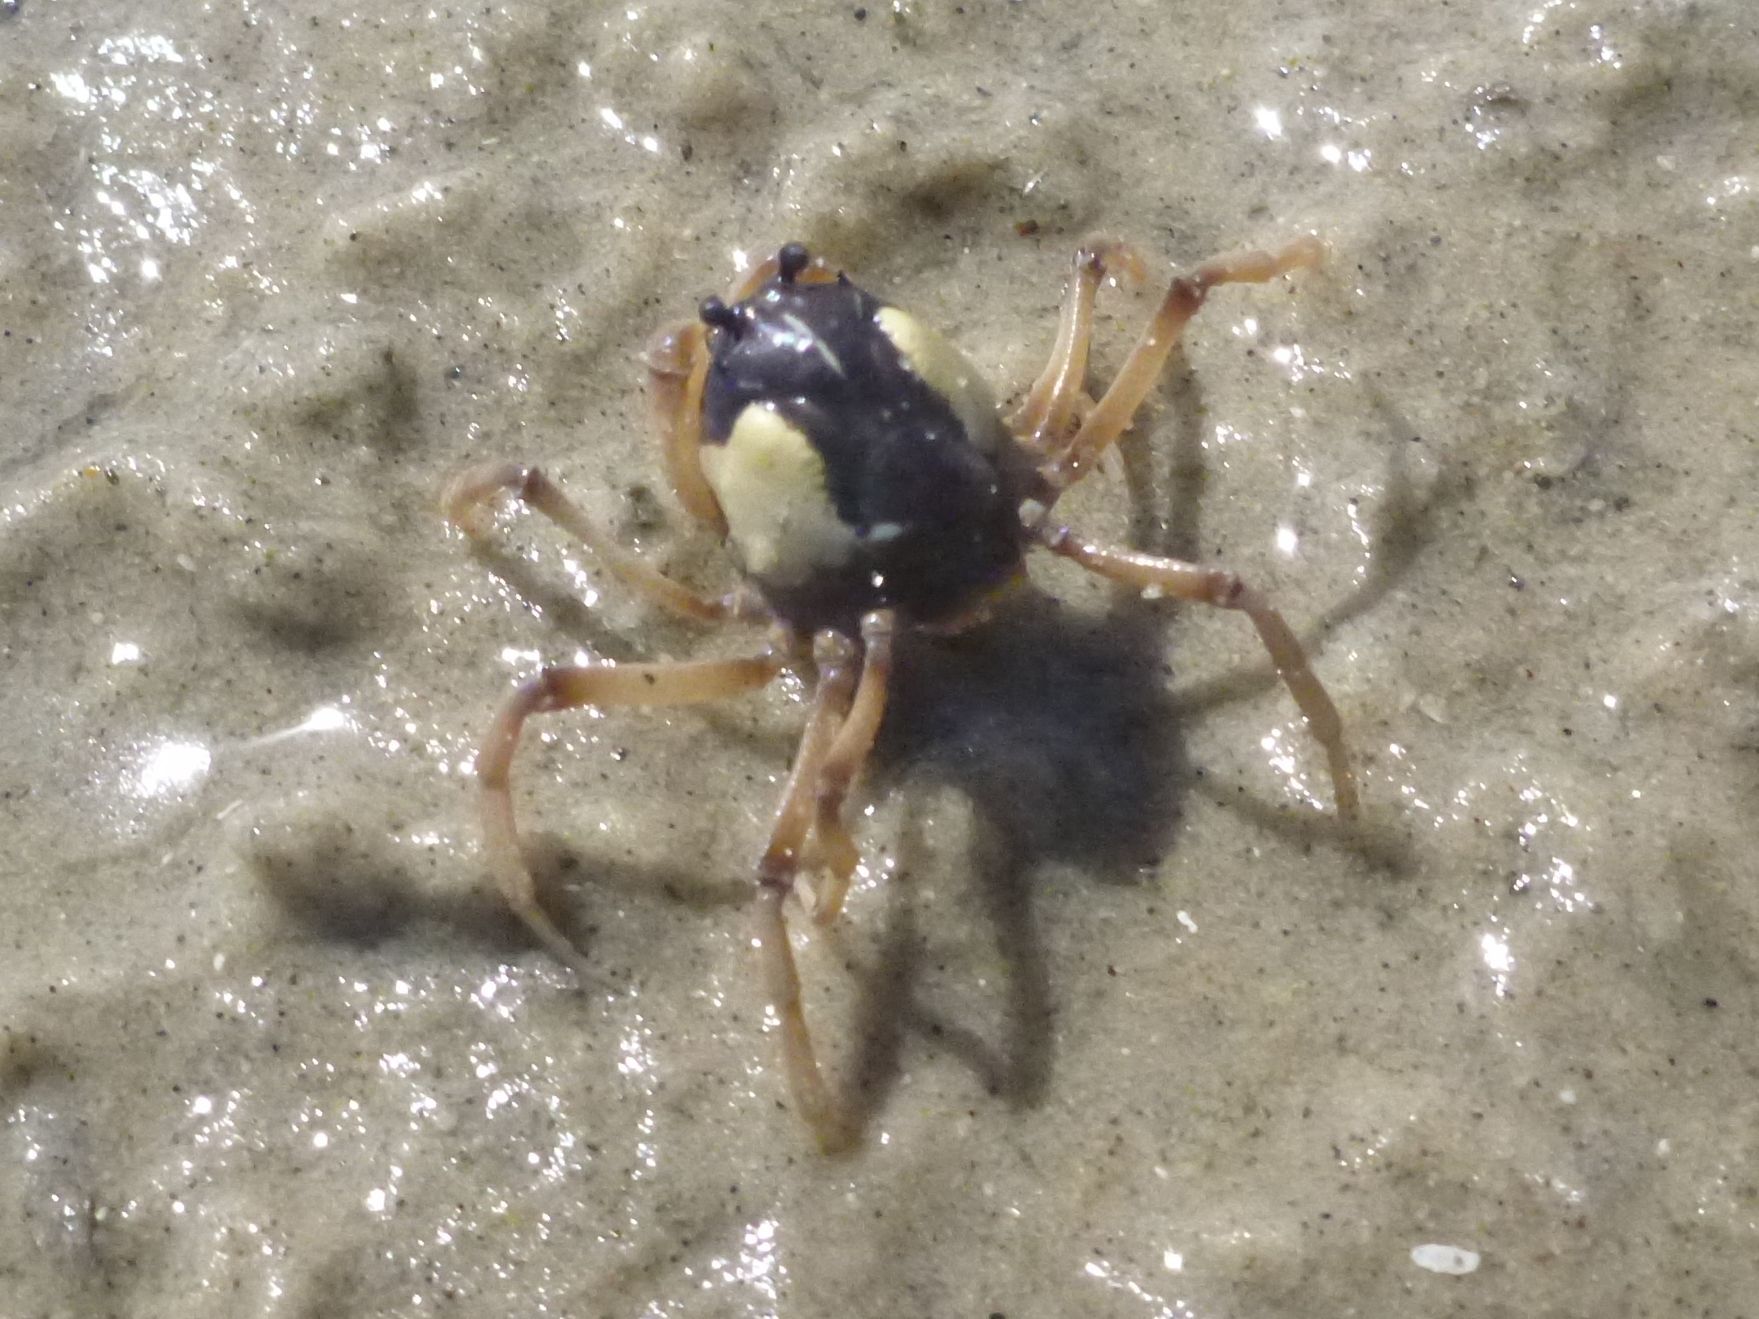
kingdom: Animalia
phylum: Arthropoda
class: Malacostraca
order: Decapoda
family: Mictyridae
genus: Mictyris
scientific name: Mictyris longicarpus
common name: Light-blue soldier crab
